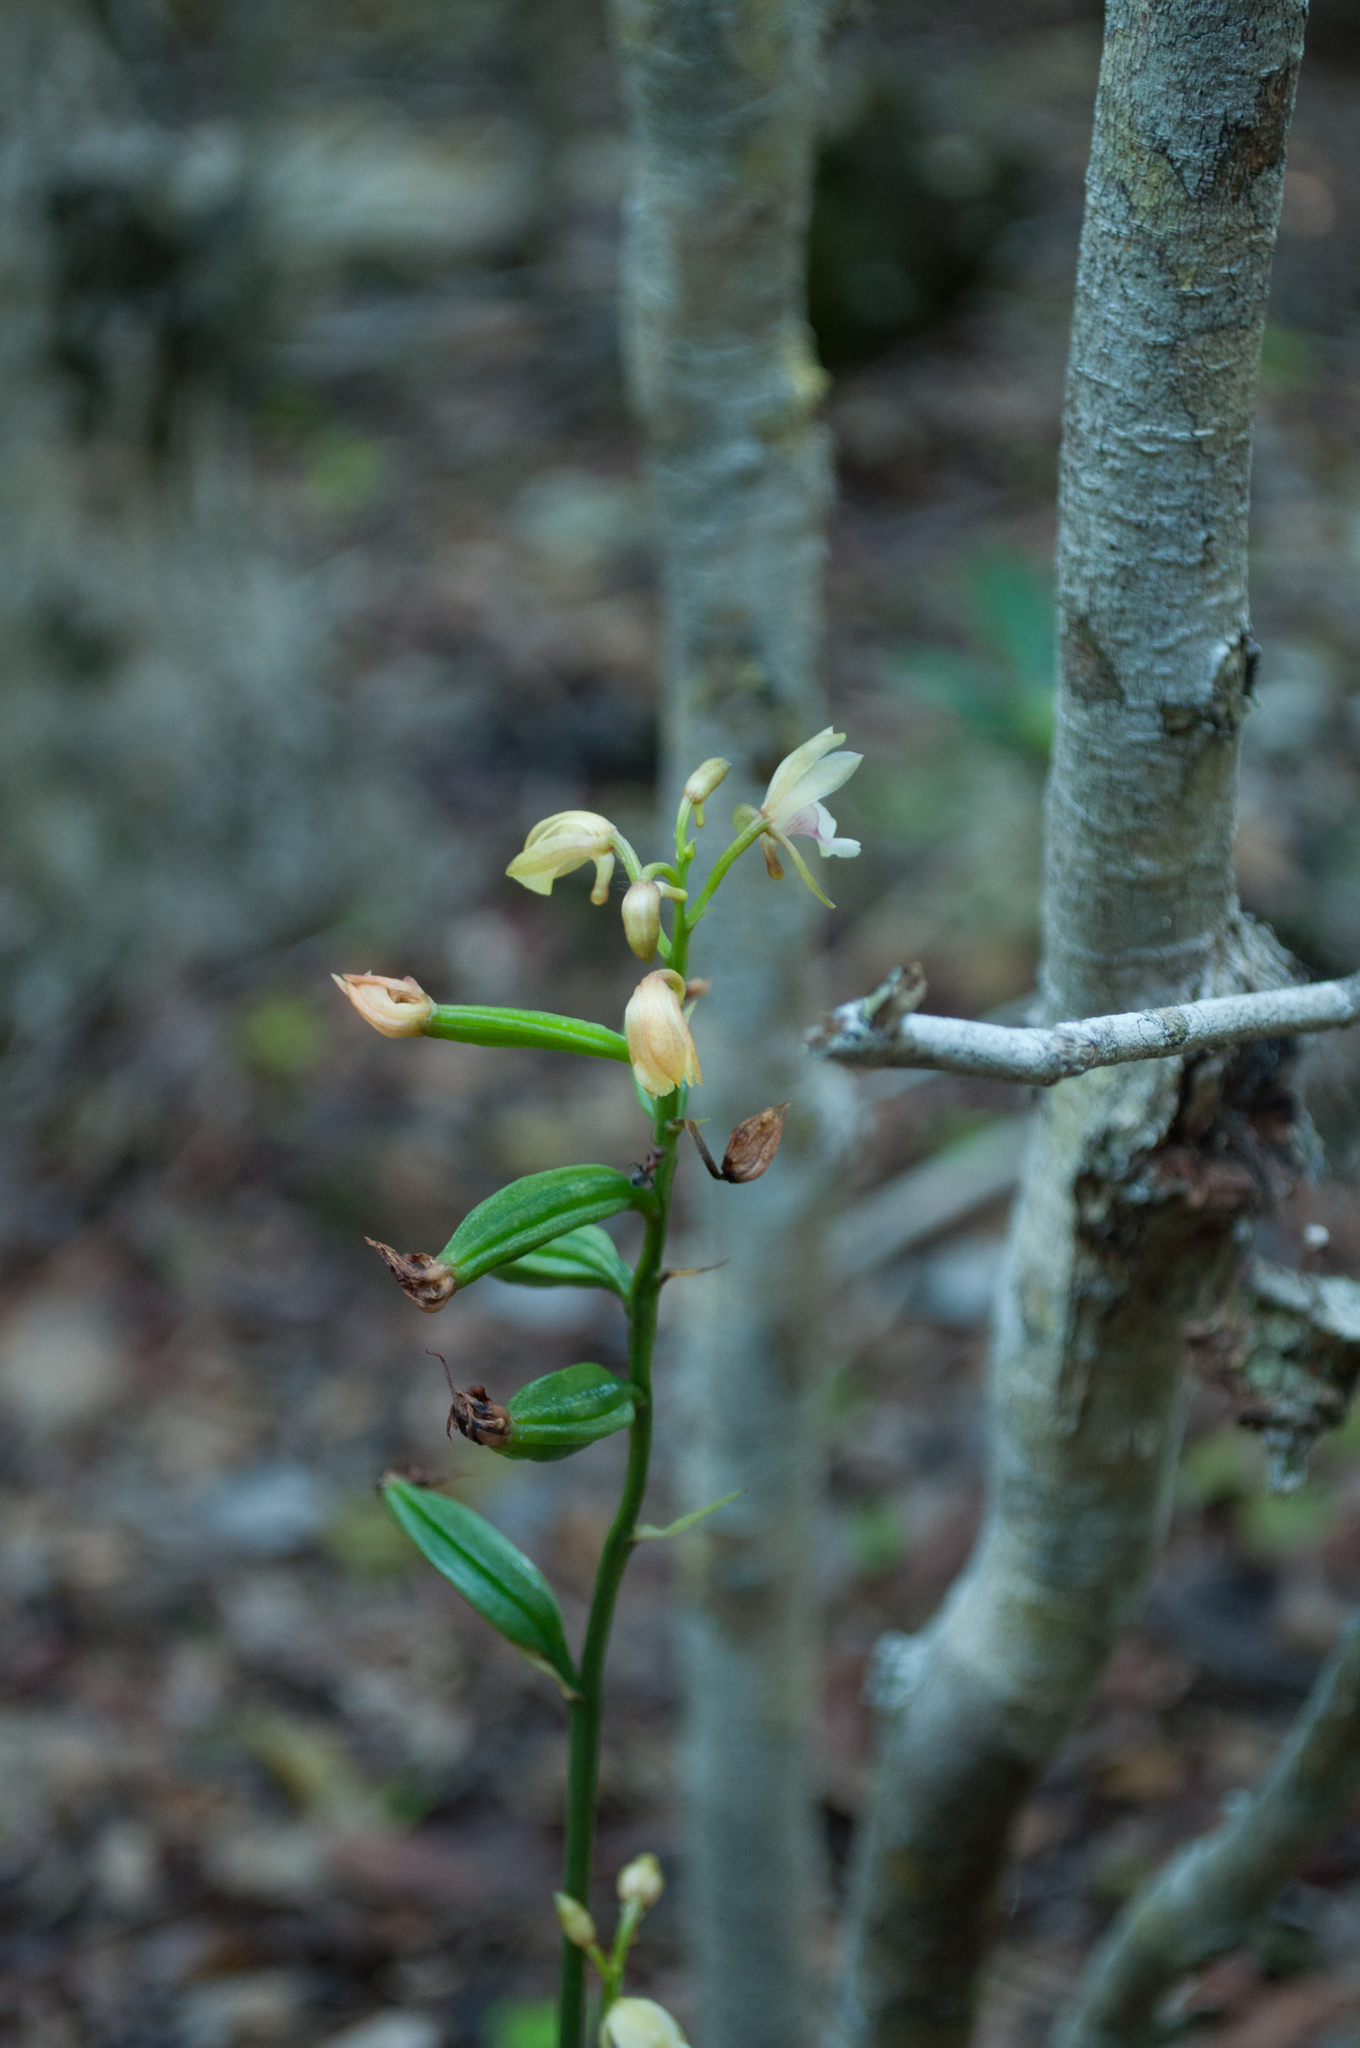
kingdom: Plantae
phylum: Tracheophyta
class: Liliopsida
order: Asparagales
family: Orchidaceae
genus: Eulophia
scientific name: Eulophia maculata
